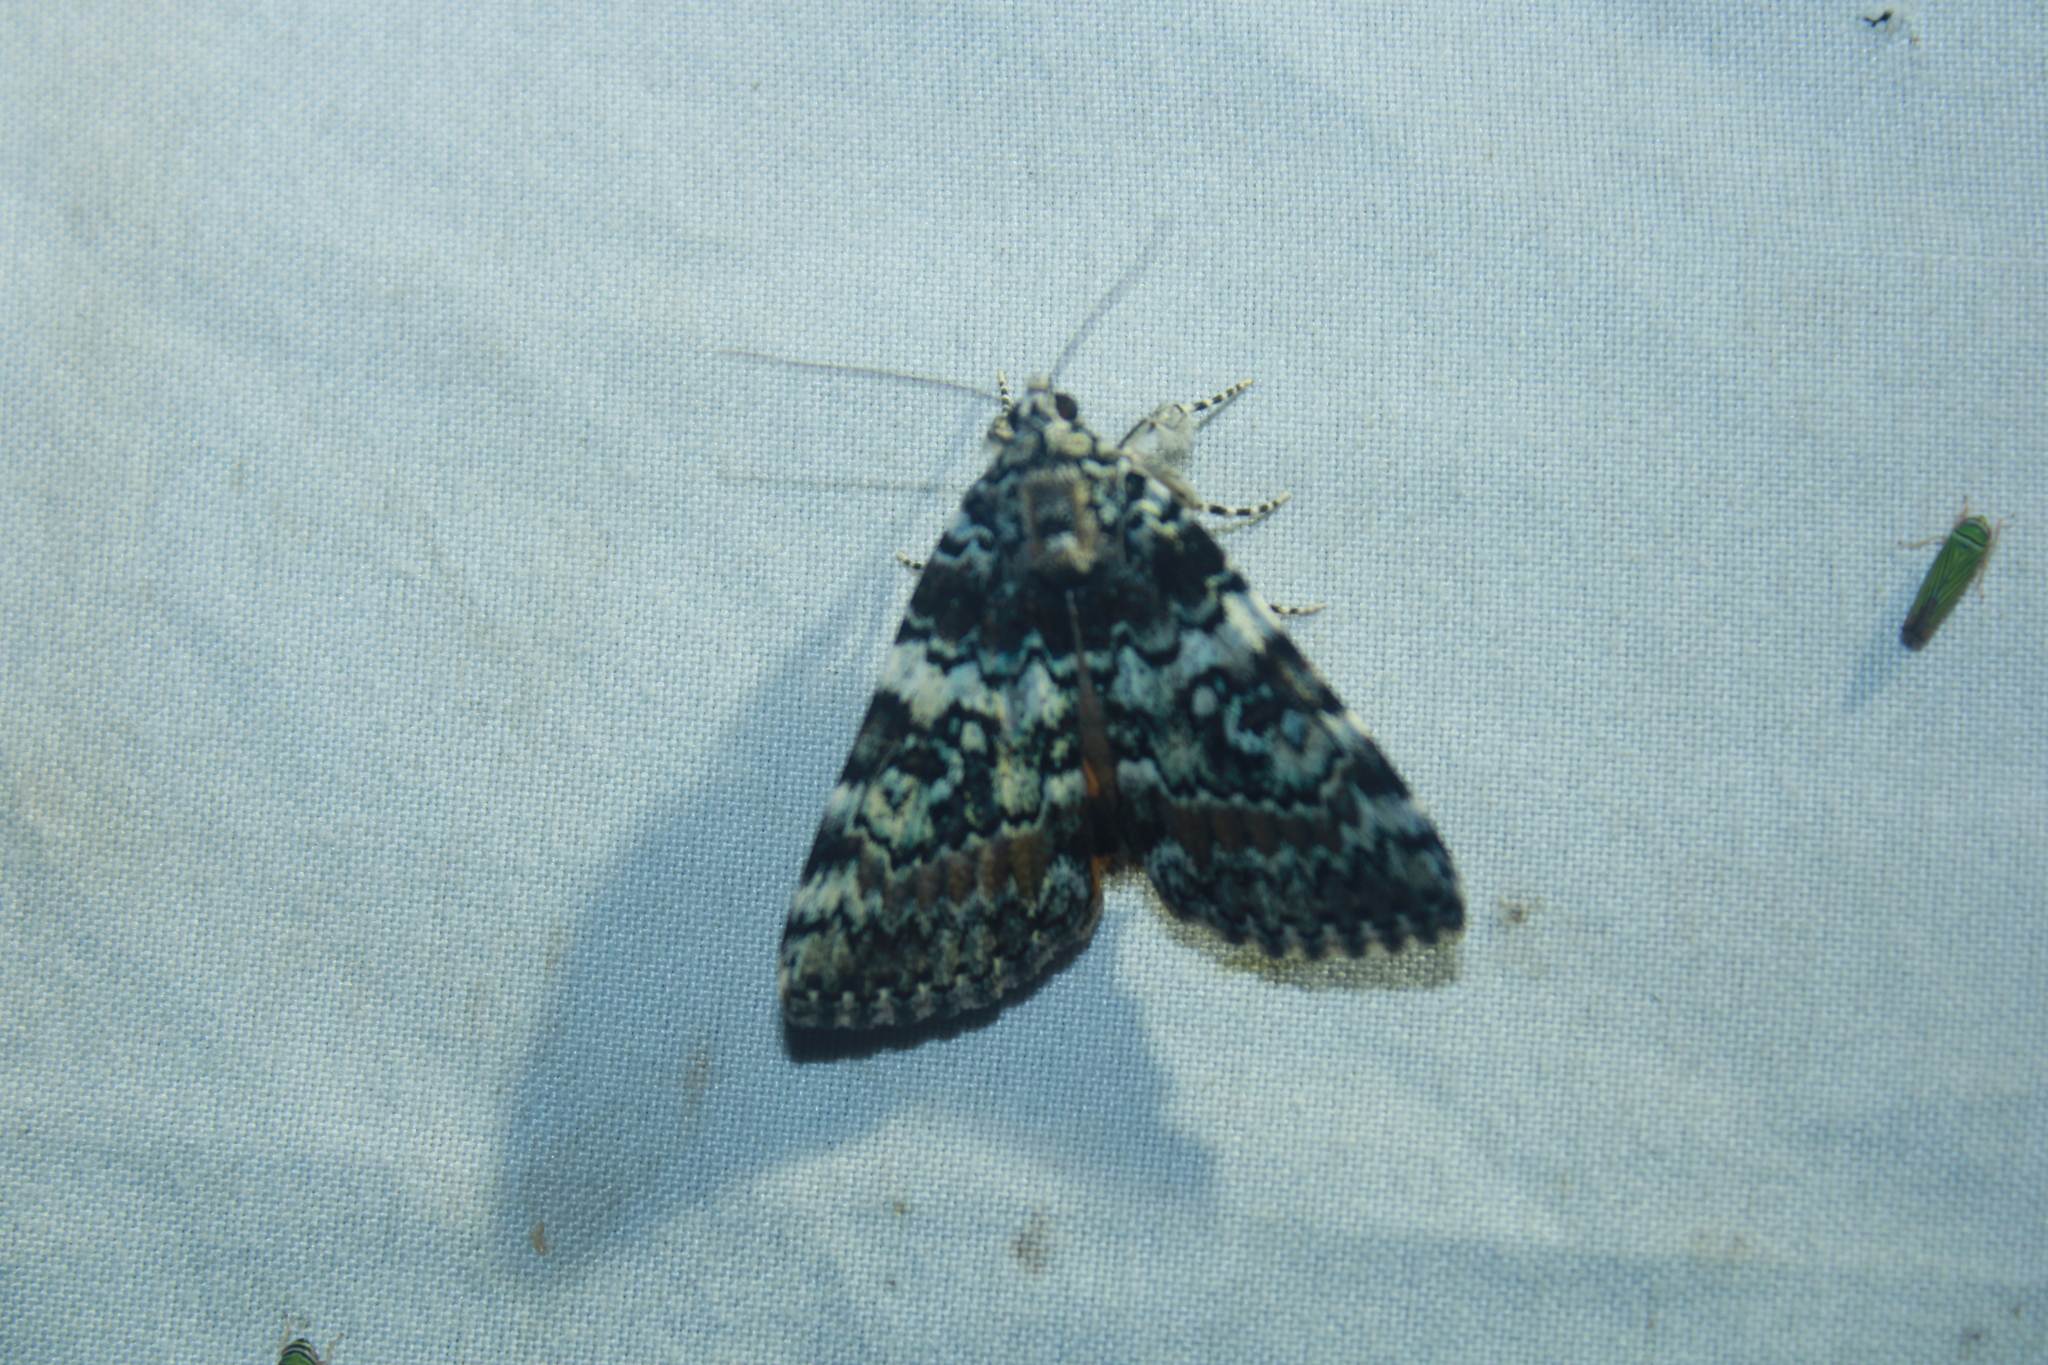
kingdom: Animalia
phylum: Arthropoda
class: Insecta
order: Lepidoptera
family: Erebidae
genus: Catocala
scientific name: Catocala connubialis
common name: Connubial underwing
